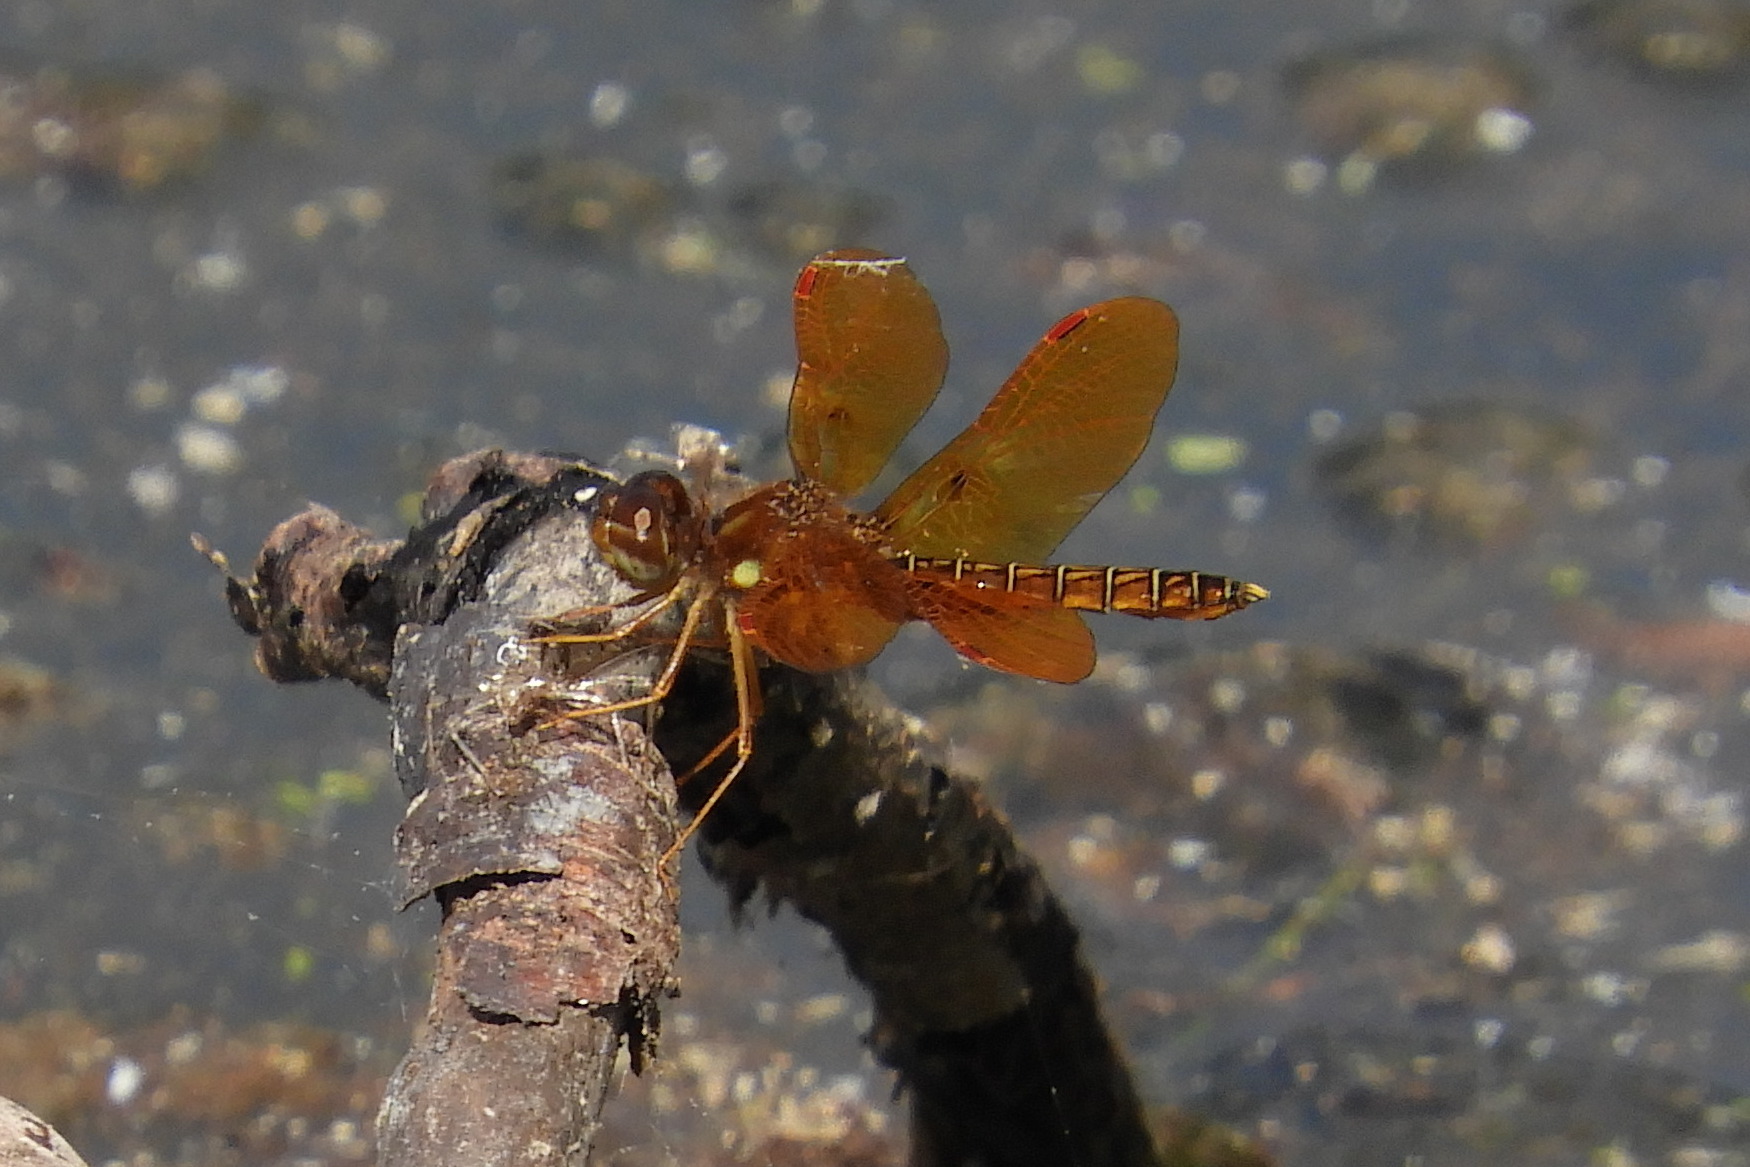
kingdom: Animalia
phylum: Arthropoda
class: Insecta
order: Odonata
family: Libellulidae
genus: Perithemis
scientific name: Perithemis tenera
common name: Eastern amberwing
